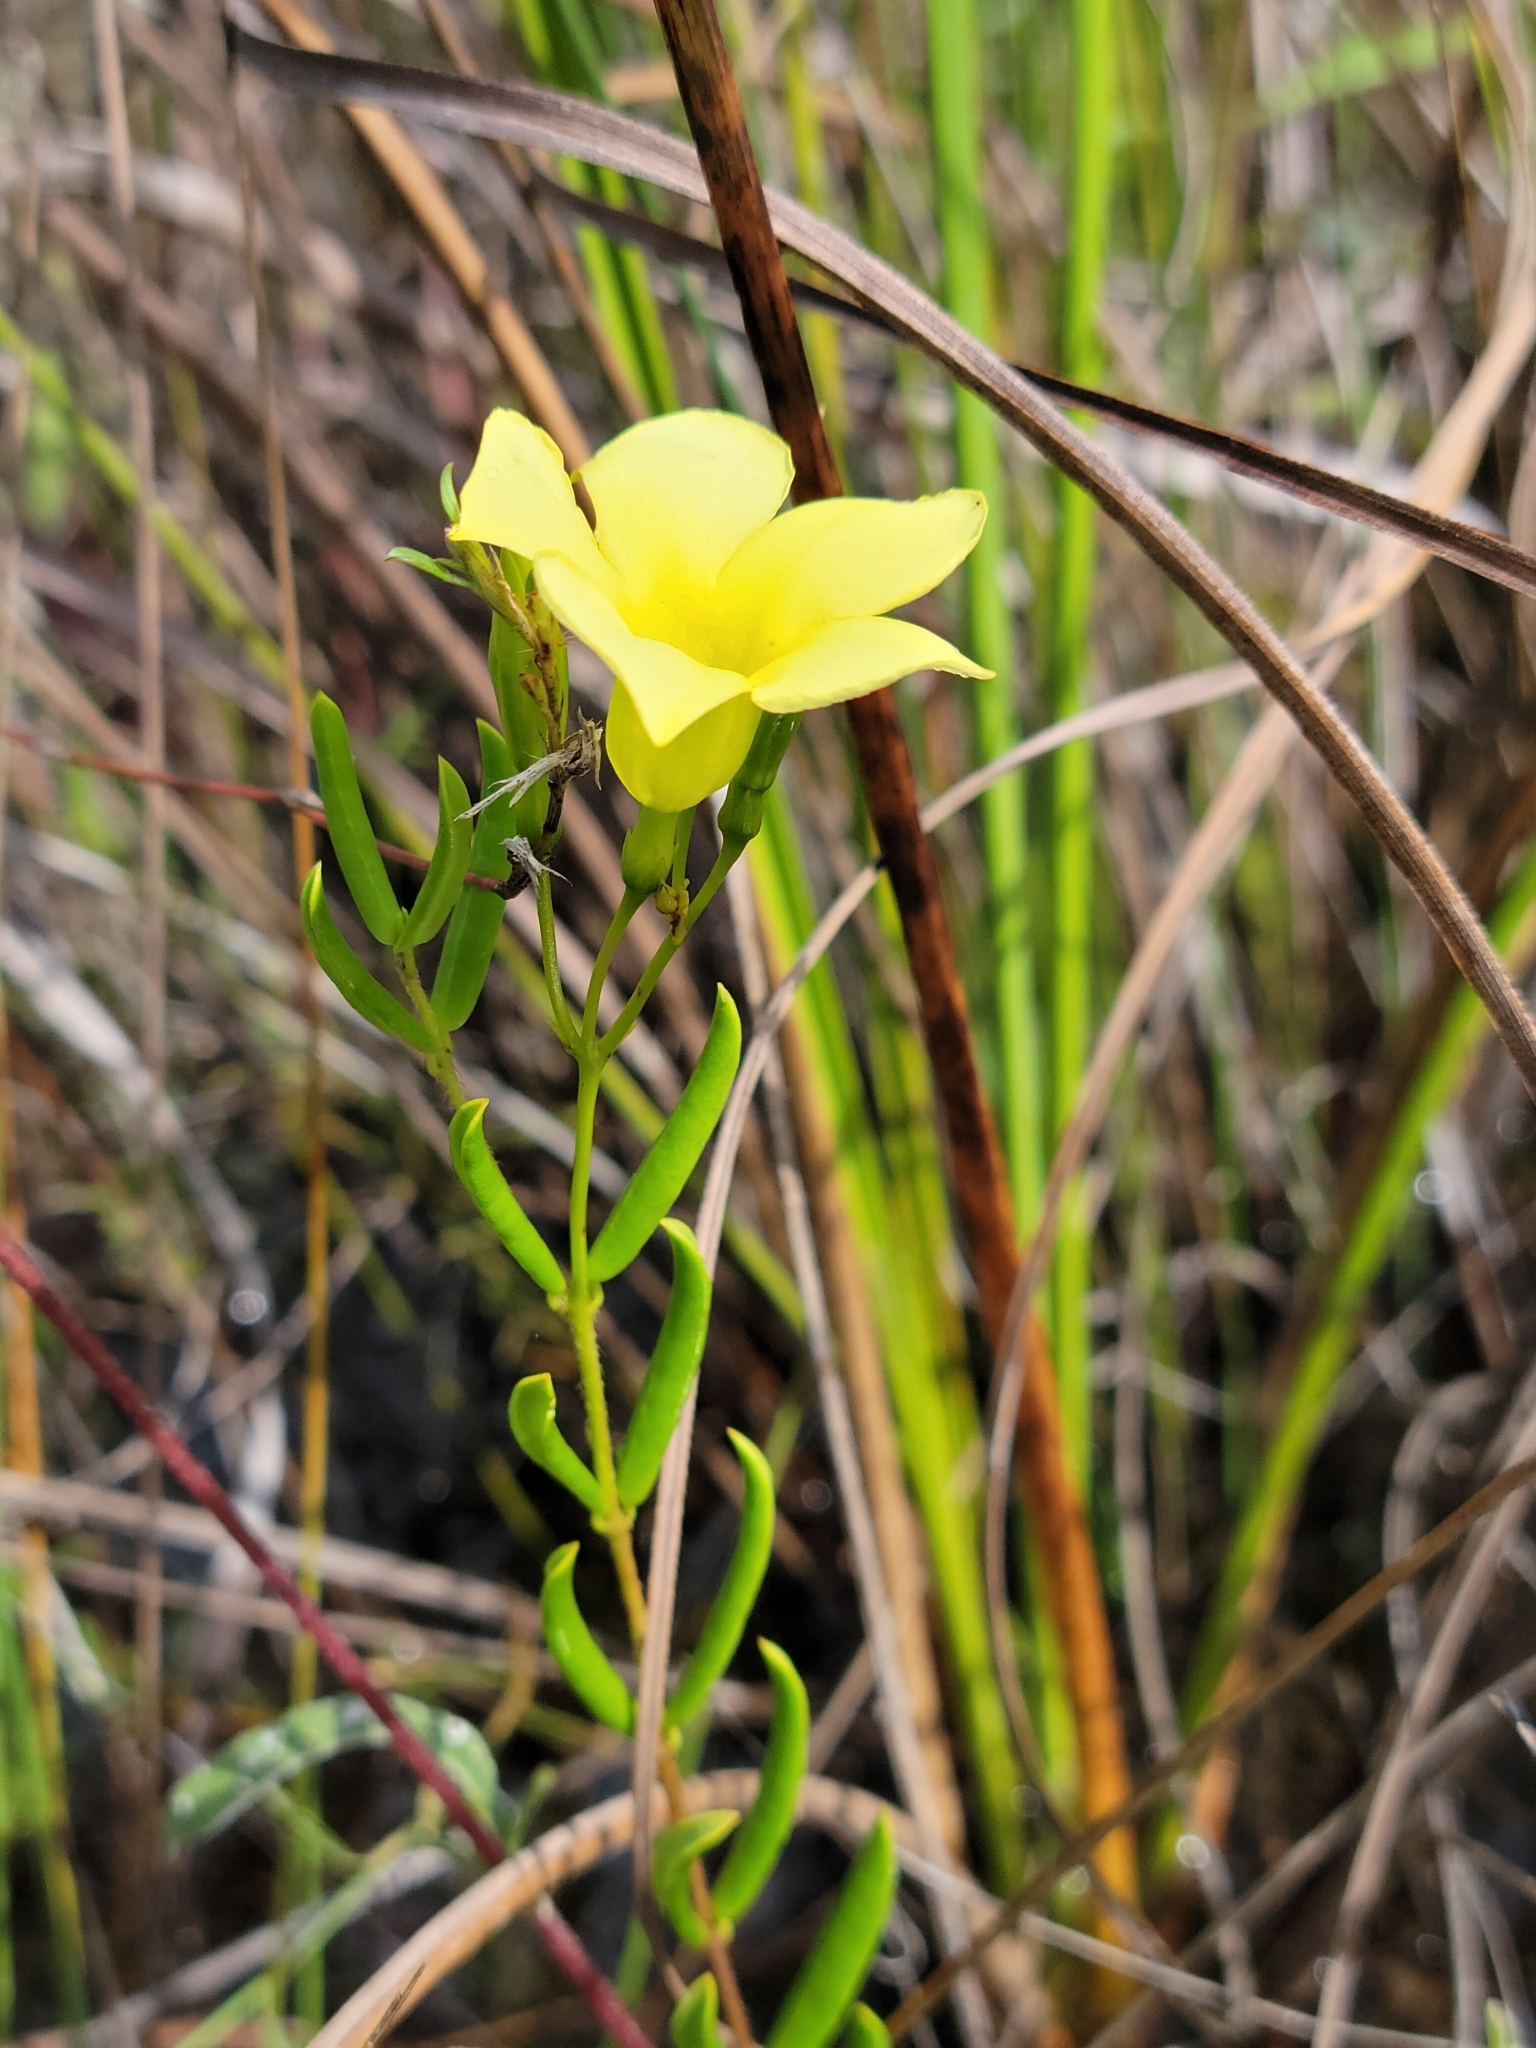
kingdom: Plantae
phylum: Tracheophyta
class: Magnoliopsida
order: Gentianales
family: Apocynaceae
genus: Angadenia
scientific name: Angadenia berteroi
